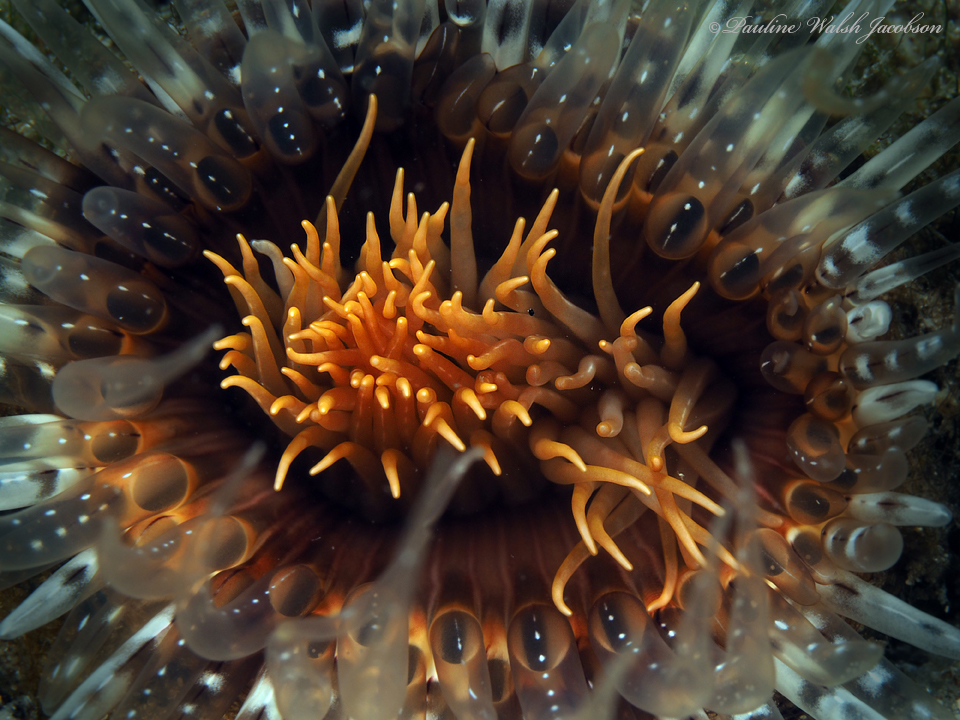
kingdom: Animalia
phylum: Cnidaria
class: Anthozoa
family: Cerianthidae
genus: Ceriantheopsis
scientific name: Ceriantheopsis americana
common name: American tube-dwelling anemone
